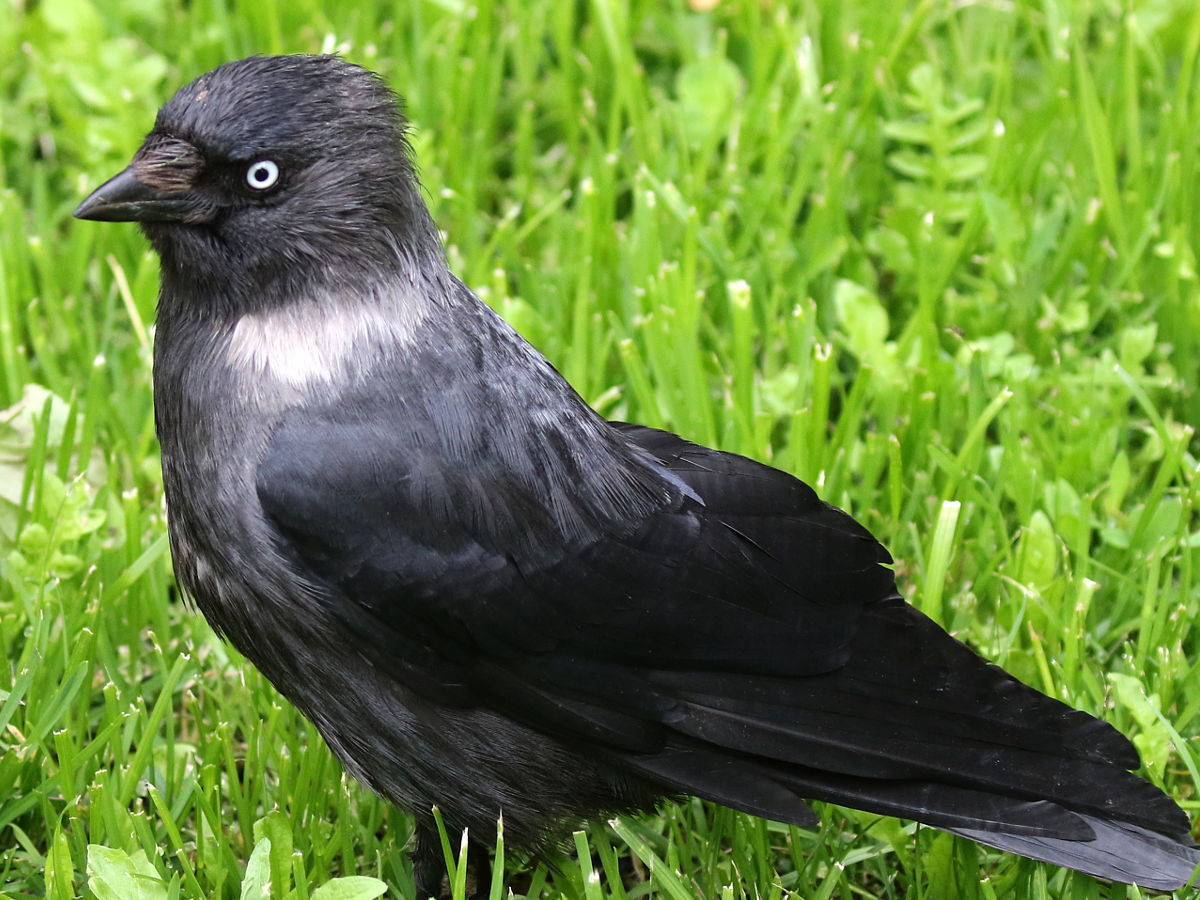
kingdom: Animalia
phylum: Chordata
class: Aves
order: Passeriformes
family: Corvidae
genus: Coloeus
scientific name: Coloeus monedula
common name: Western jackdaw
